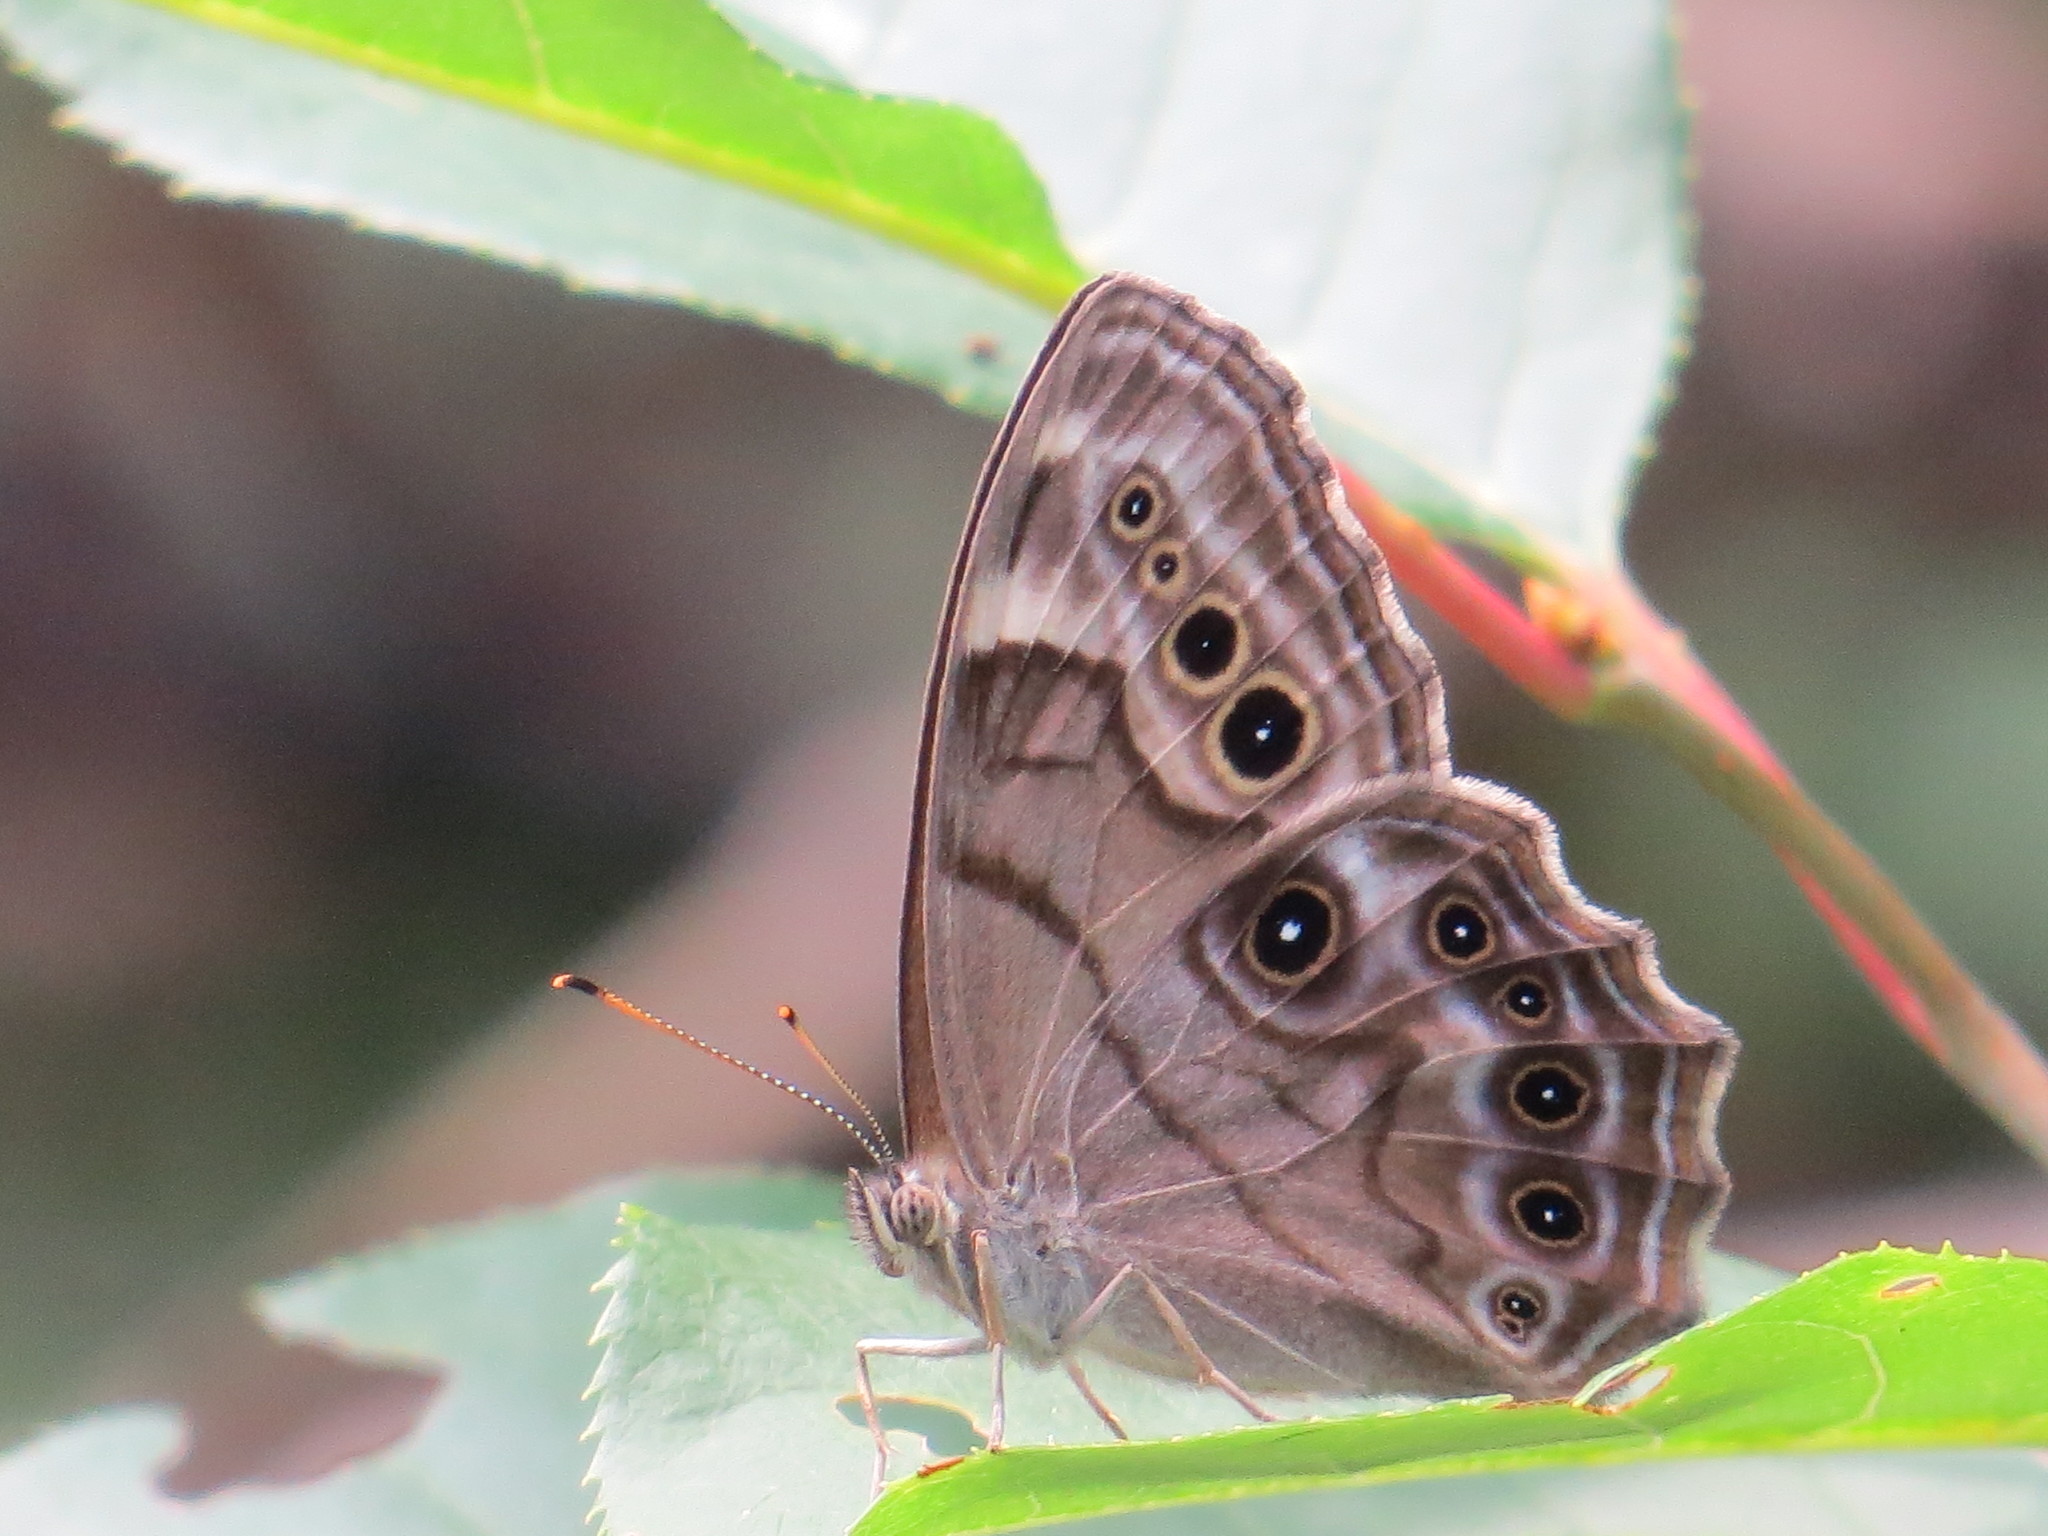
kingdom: Animalia
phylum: Arthropoda
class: Insecta
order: Lepidoptera
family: Nymphalidae
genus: Lethe
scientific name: Lethe anthedon
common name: Northern pearly-eye
